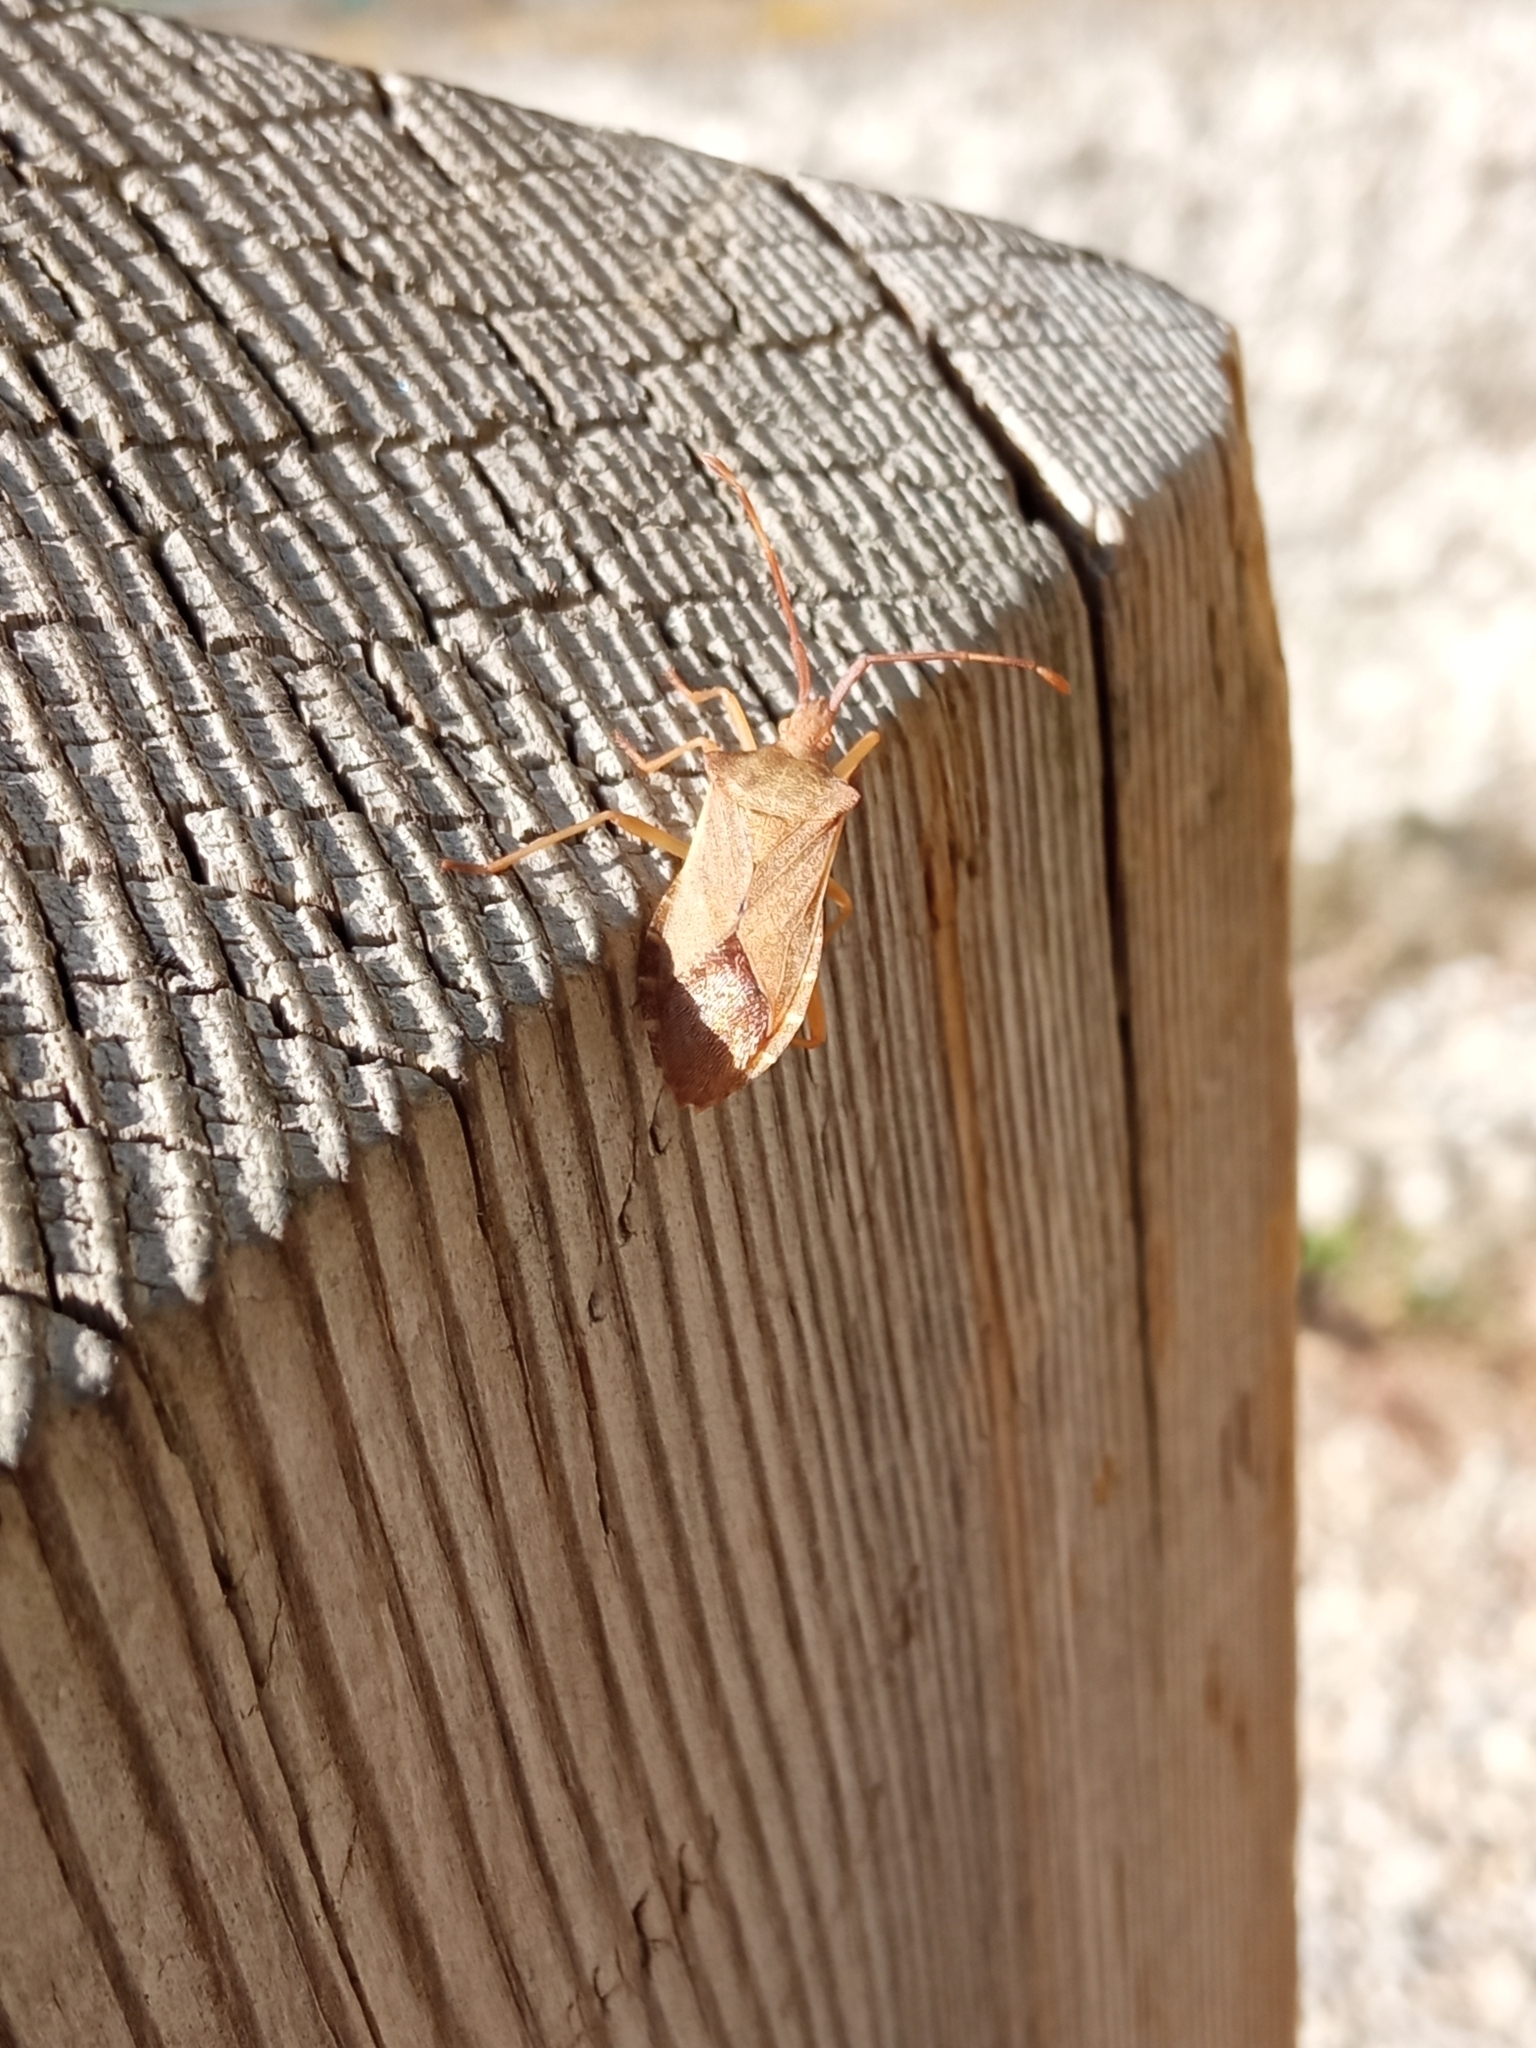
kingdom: Animalia
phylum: Arthropoda
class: Insecta
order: Hemiptera
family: Coreidae
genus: Gonocerus
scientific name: Gonocerus acuteangulatus
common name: Box bug
